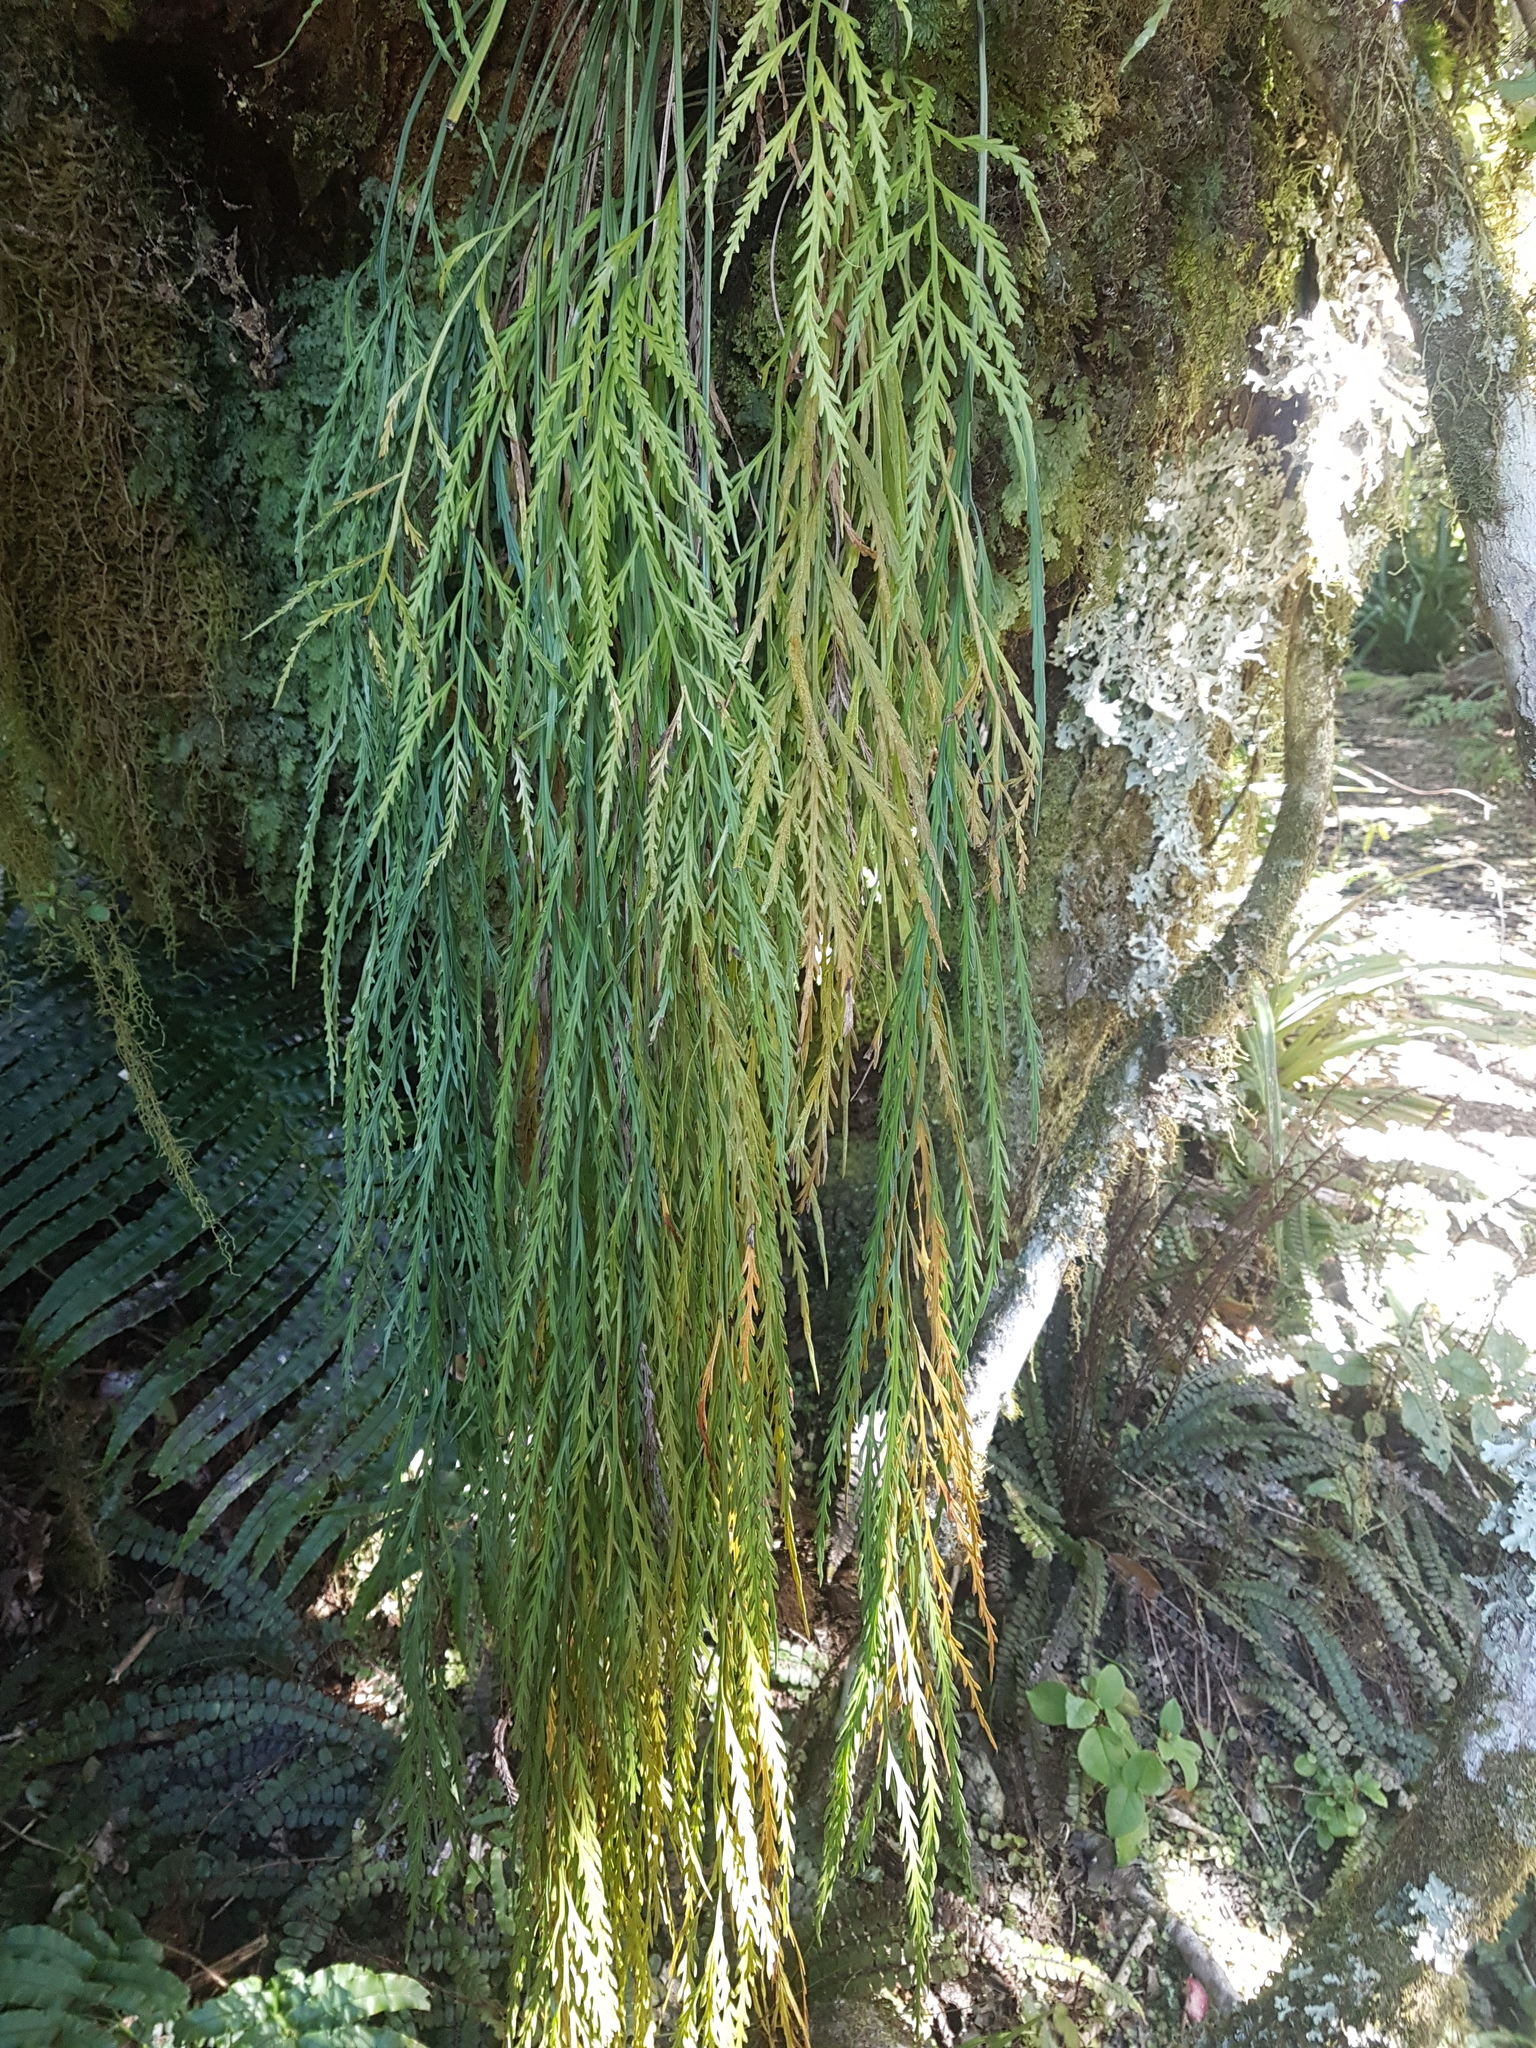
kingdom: Plantae
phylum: Tracheophyta
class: Polypodiopsida
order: Polypodiales
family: Aspleniaceae
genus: Asplenium
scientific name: Asplenium flaccidum
